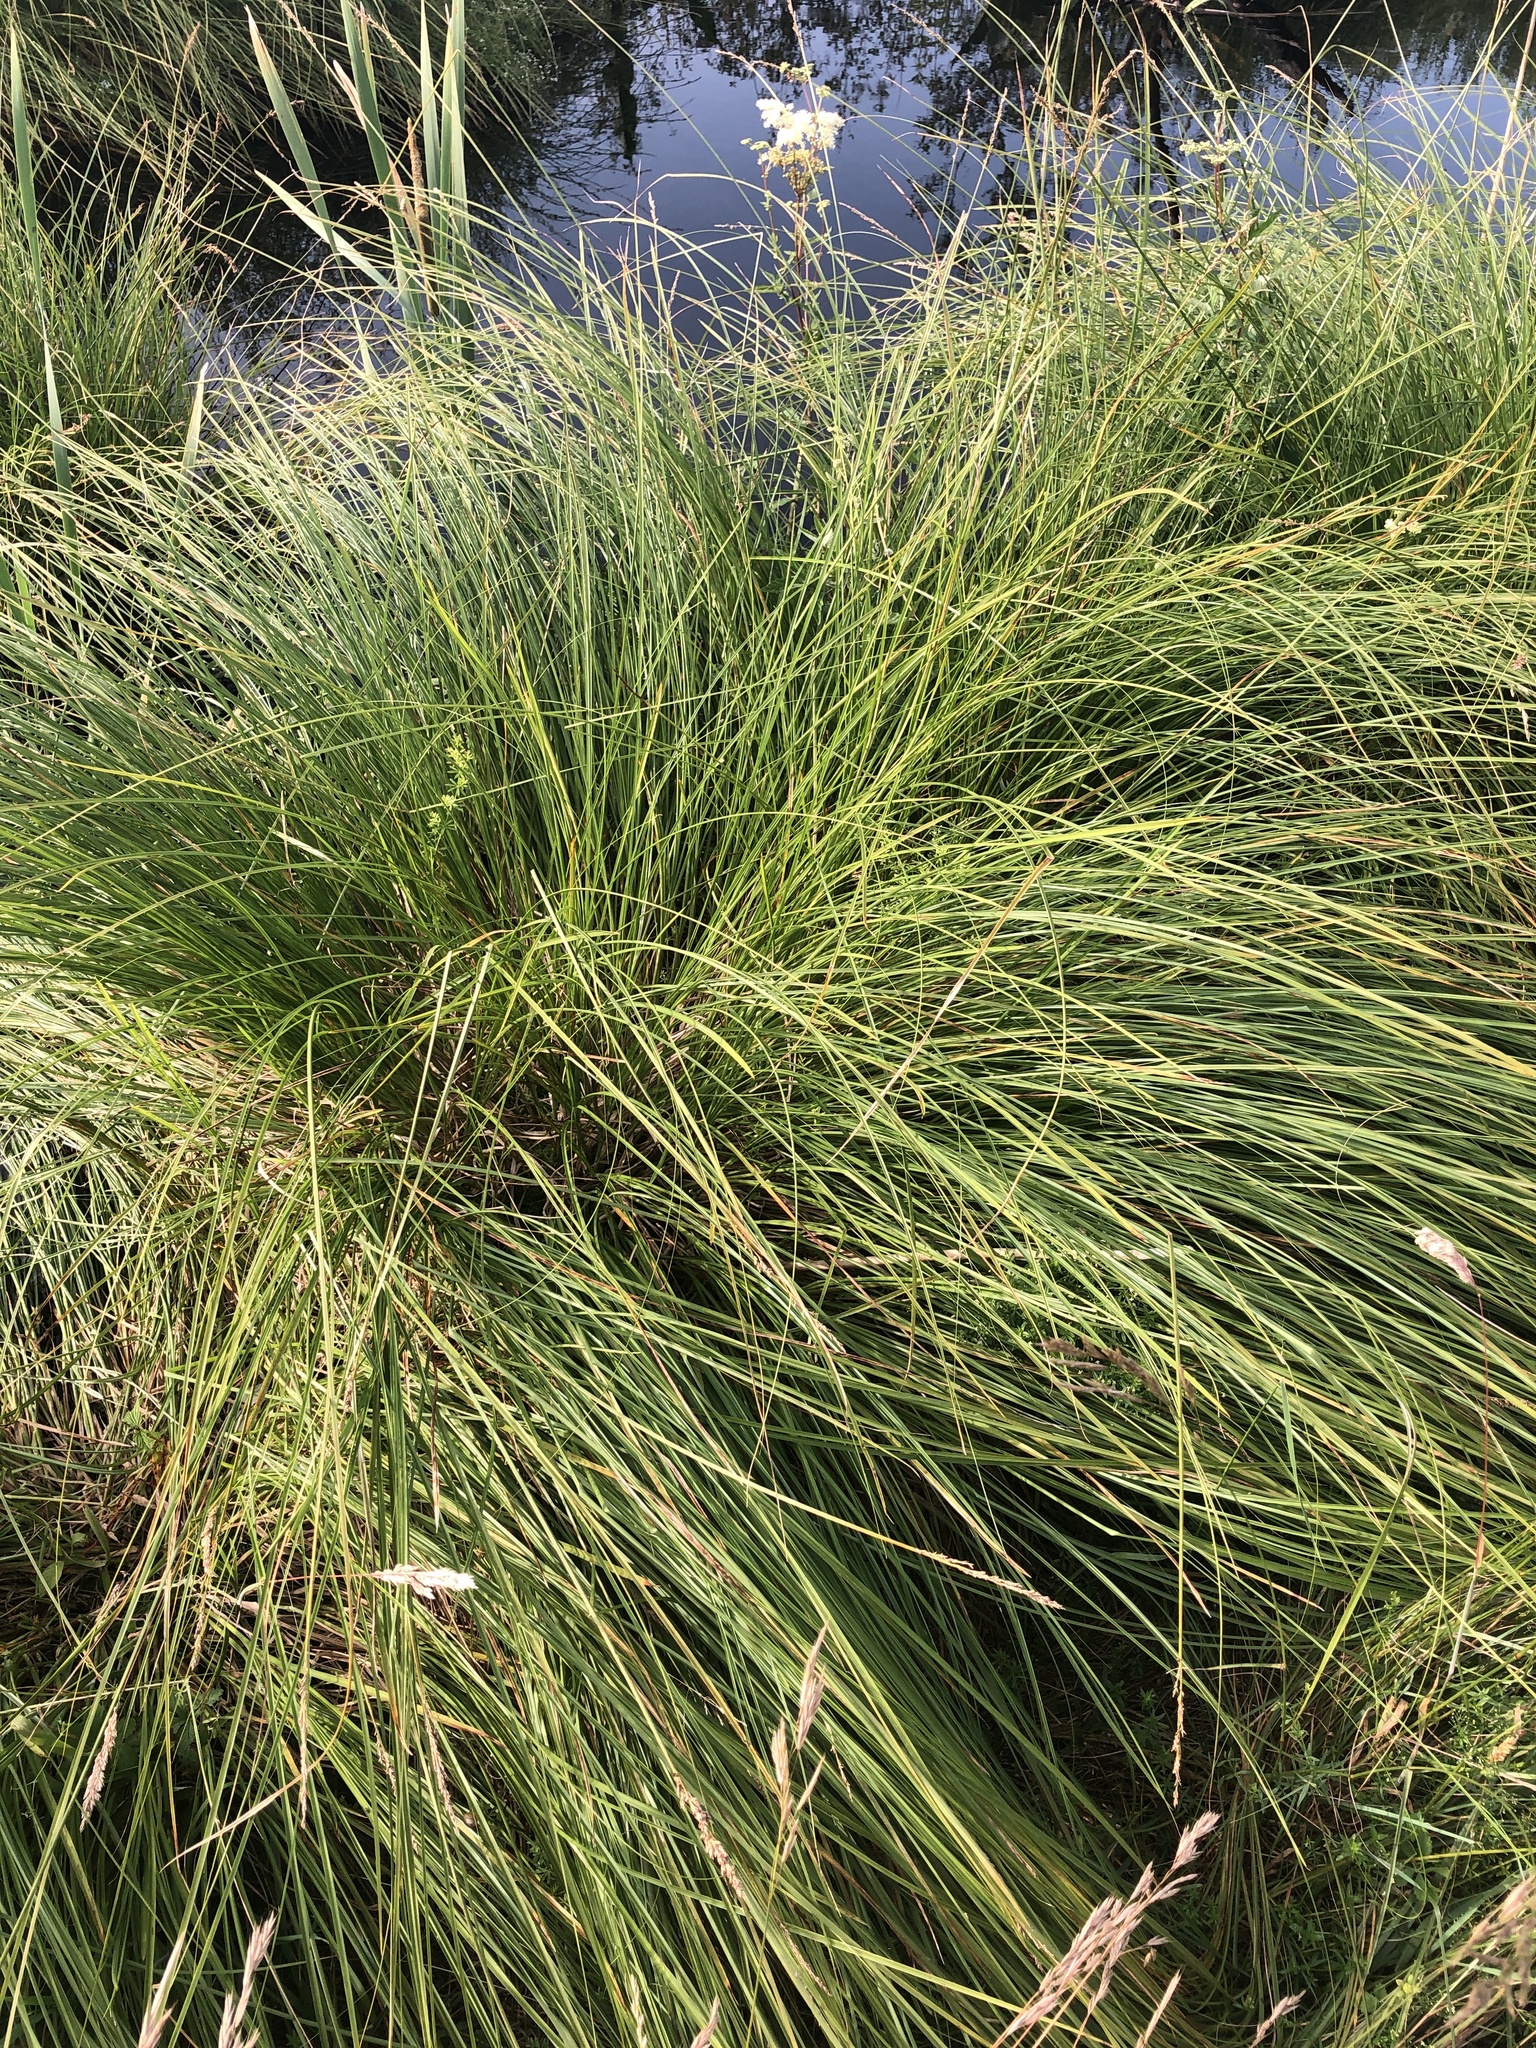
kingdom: Plantae
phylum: Tracheophyta
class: Liliopsida
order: Poales
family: Cyperaceae
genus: Carex
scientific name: Carex paniculata
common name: Greater tussock-sedge
